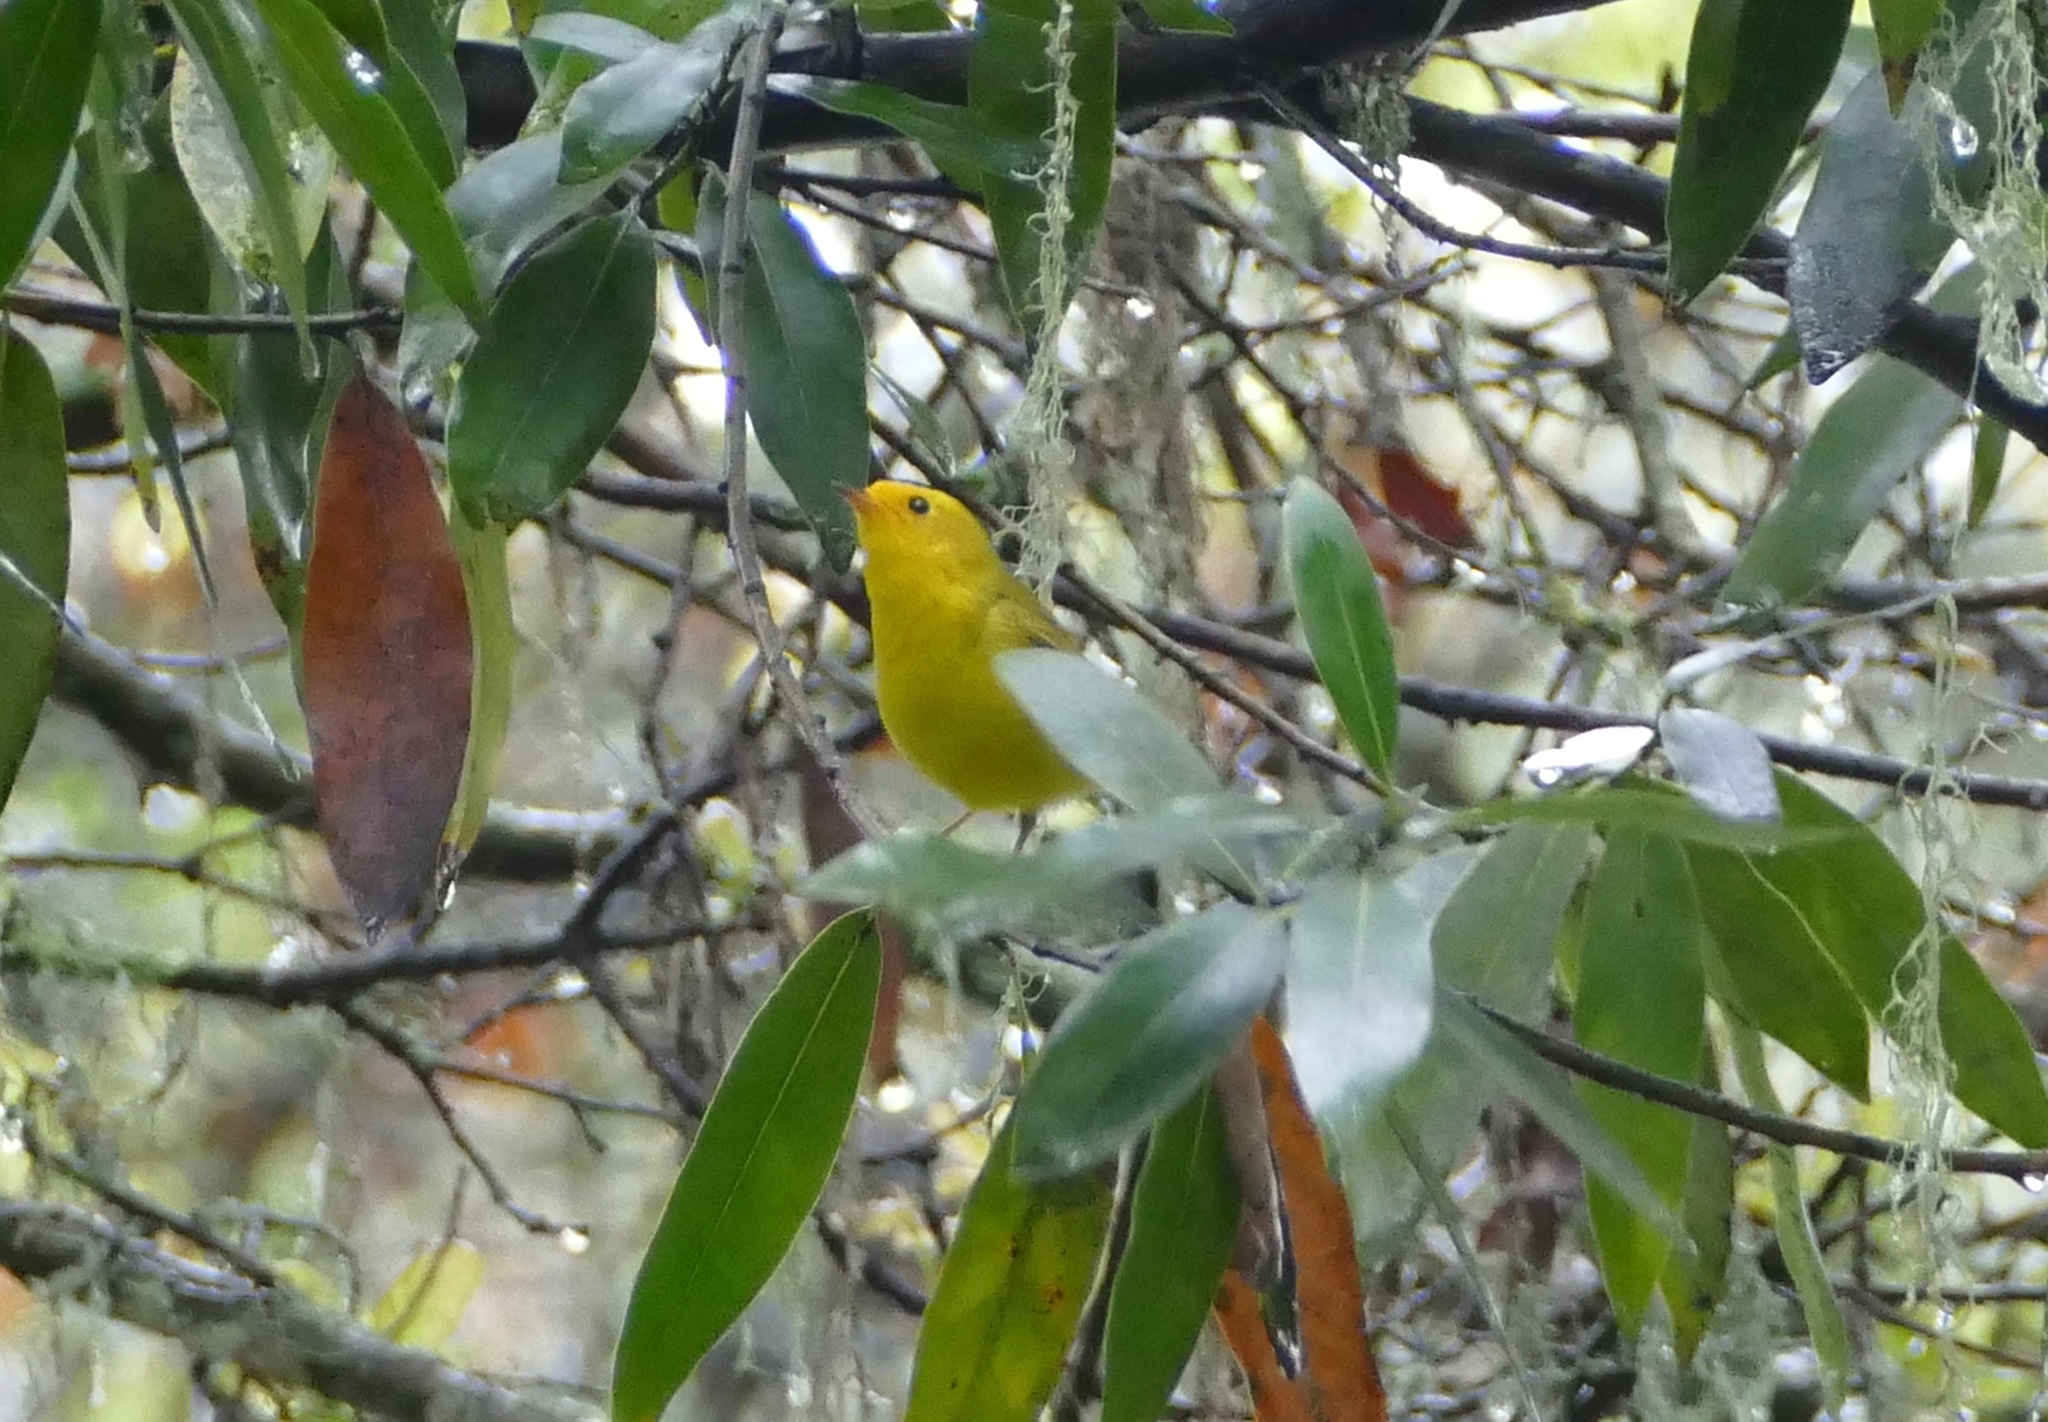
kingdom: Animalia
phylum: Chordata
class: Aves
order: Passeriformes
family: Parulidae
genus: Cardellina
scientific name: Cardellina pusilla
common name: Wilson's warbler
